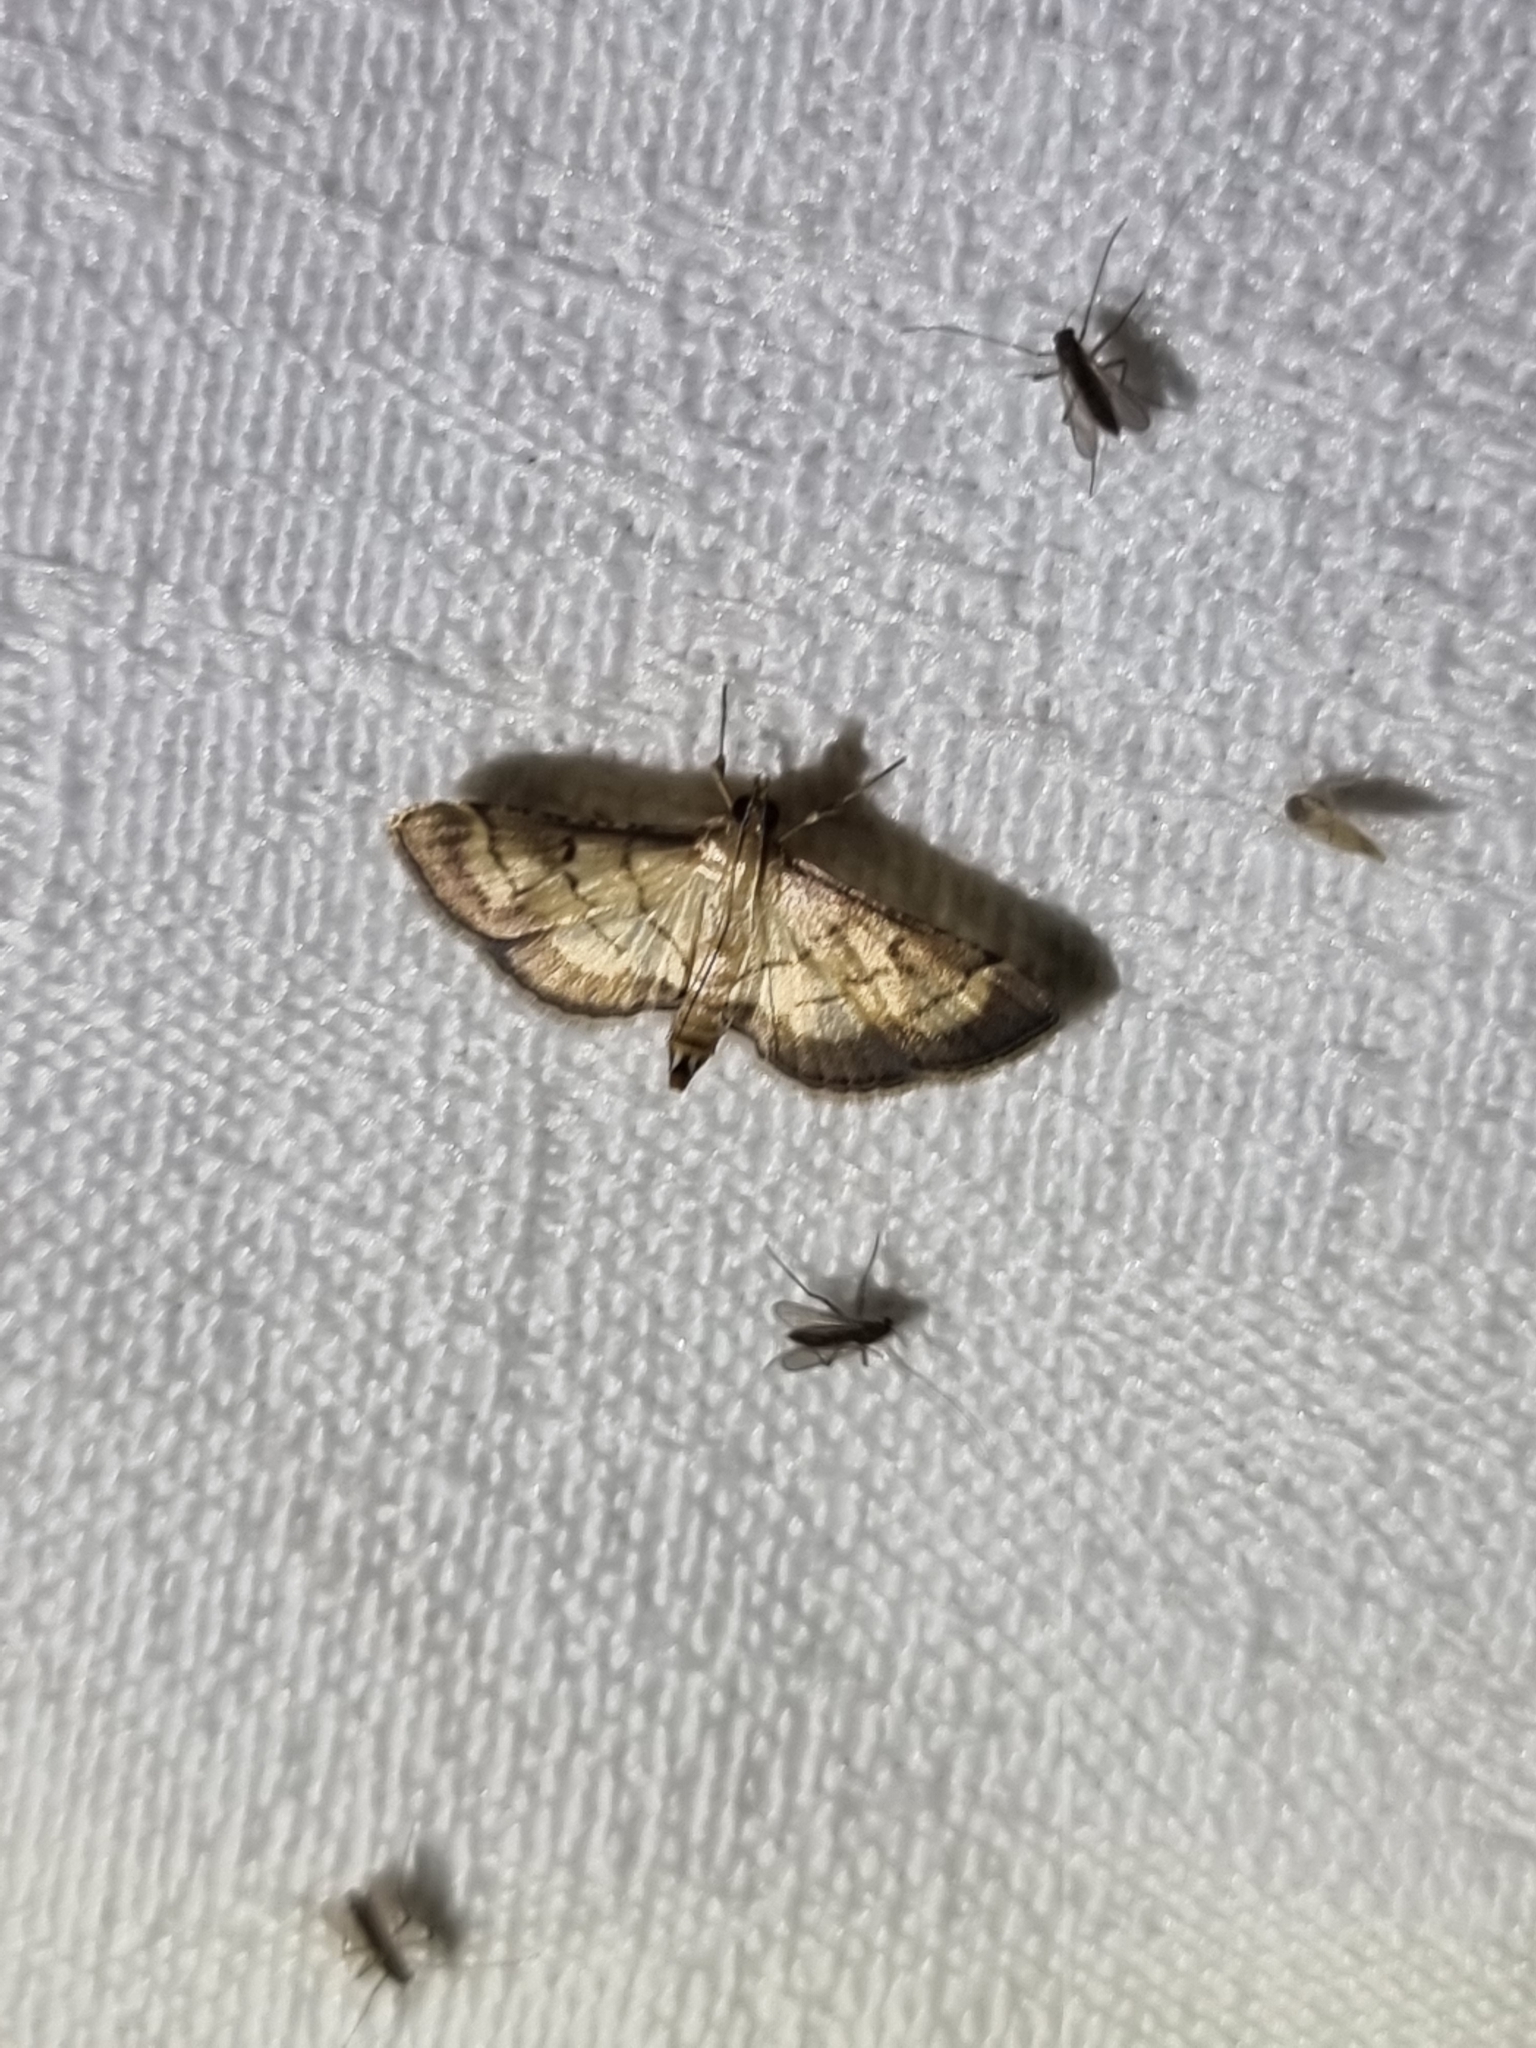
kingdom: Animalia
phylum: Arthropoda
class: Insecta
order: Lepidoptera
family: Crambidae
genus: Cnaphalocrocis
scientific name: Cnaphalocrocis poeyalis
